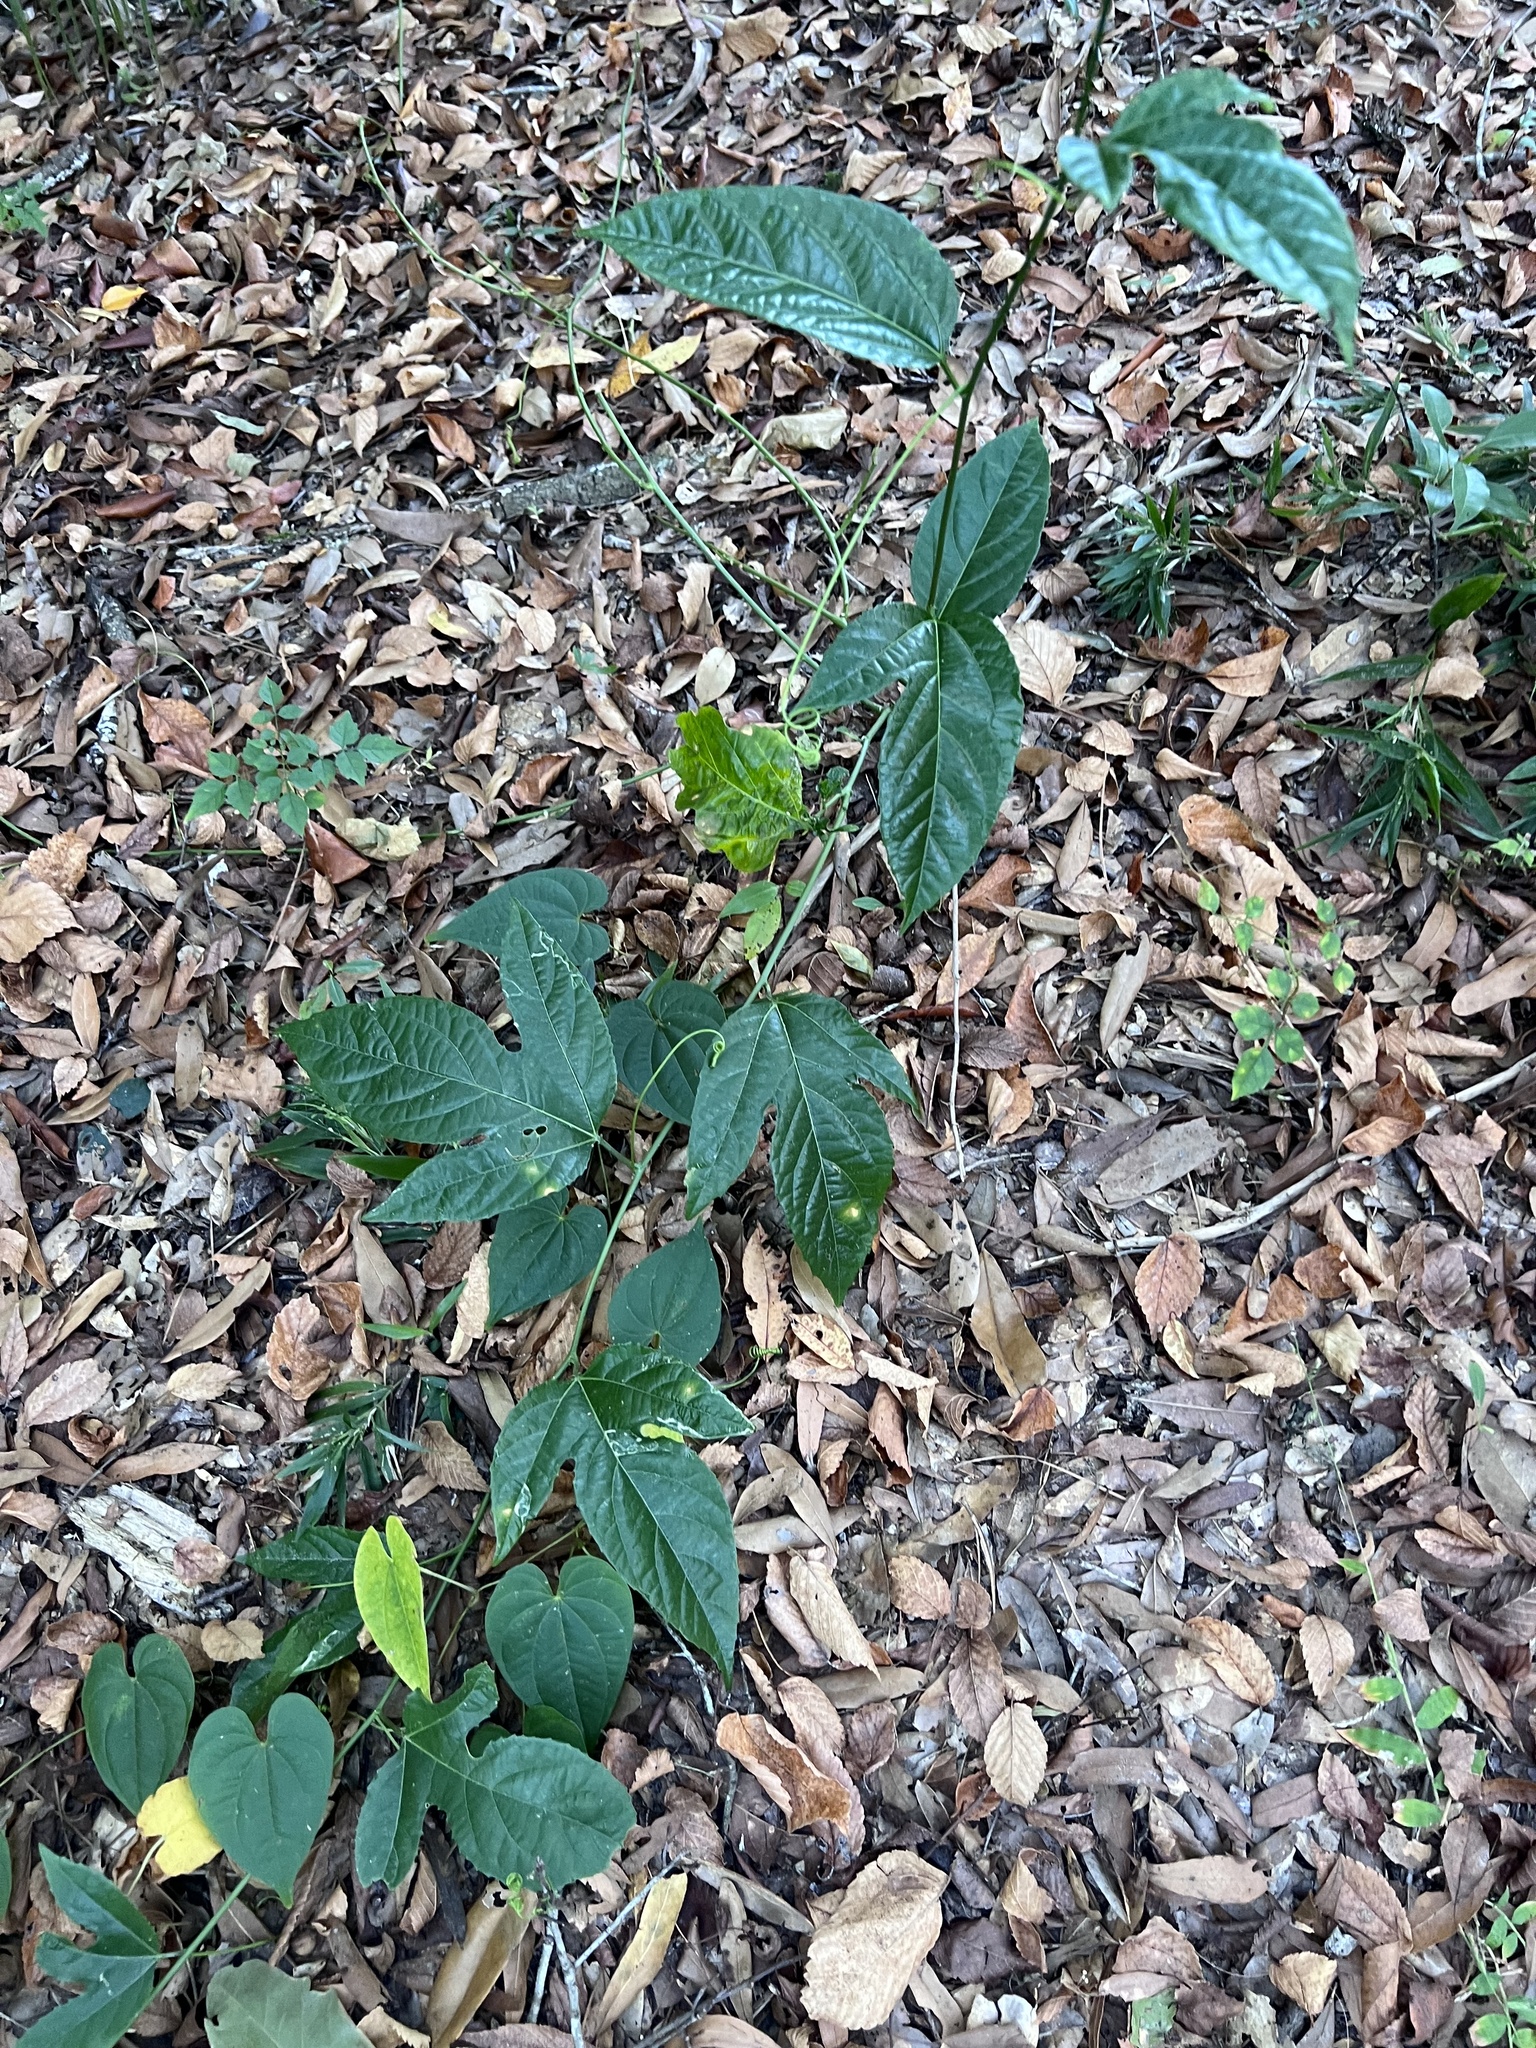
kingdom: Plantae
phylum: Tracheophyta
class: Magnoliopsida
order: Malpighiales
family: Passifloraceae
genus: Passiflora
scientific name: Passiflora edulis
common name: Purple granadilla
